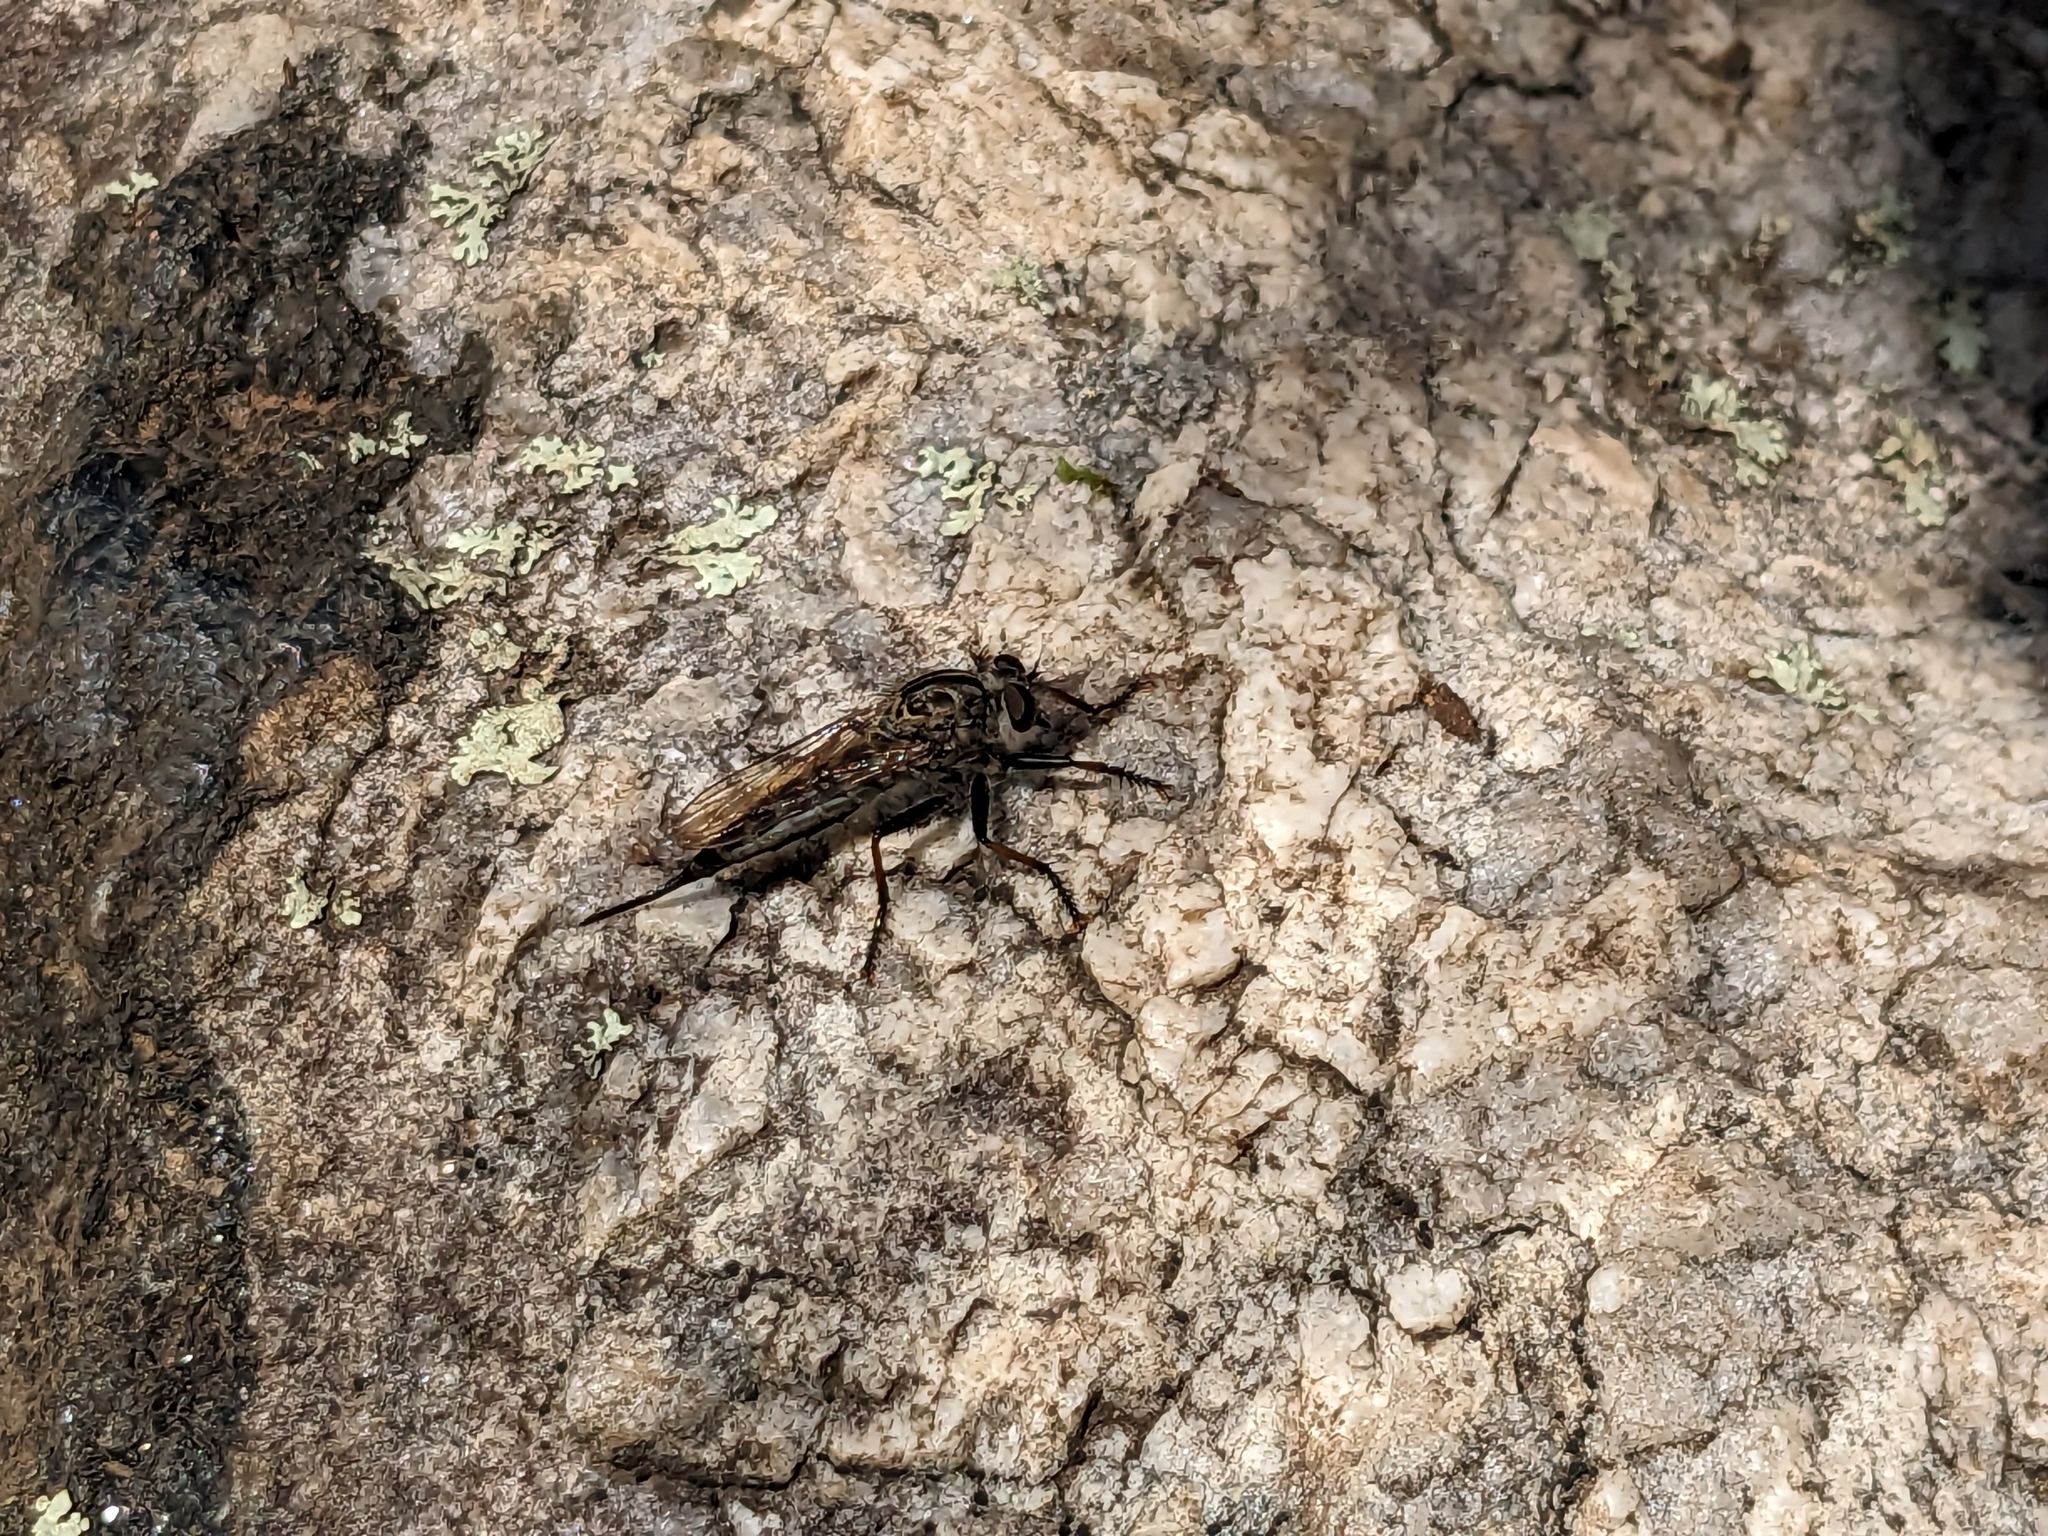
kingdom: Animalia
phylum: Arthropoda
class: Insecta
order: Diptera
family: Asilidae
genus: Efferia
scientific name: Efferia aestuans
